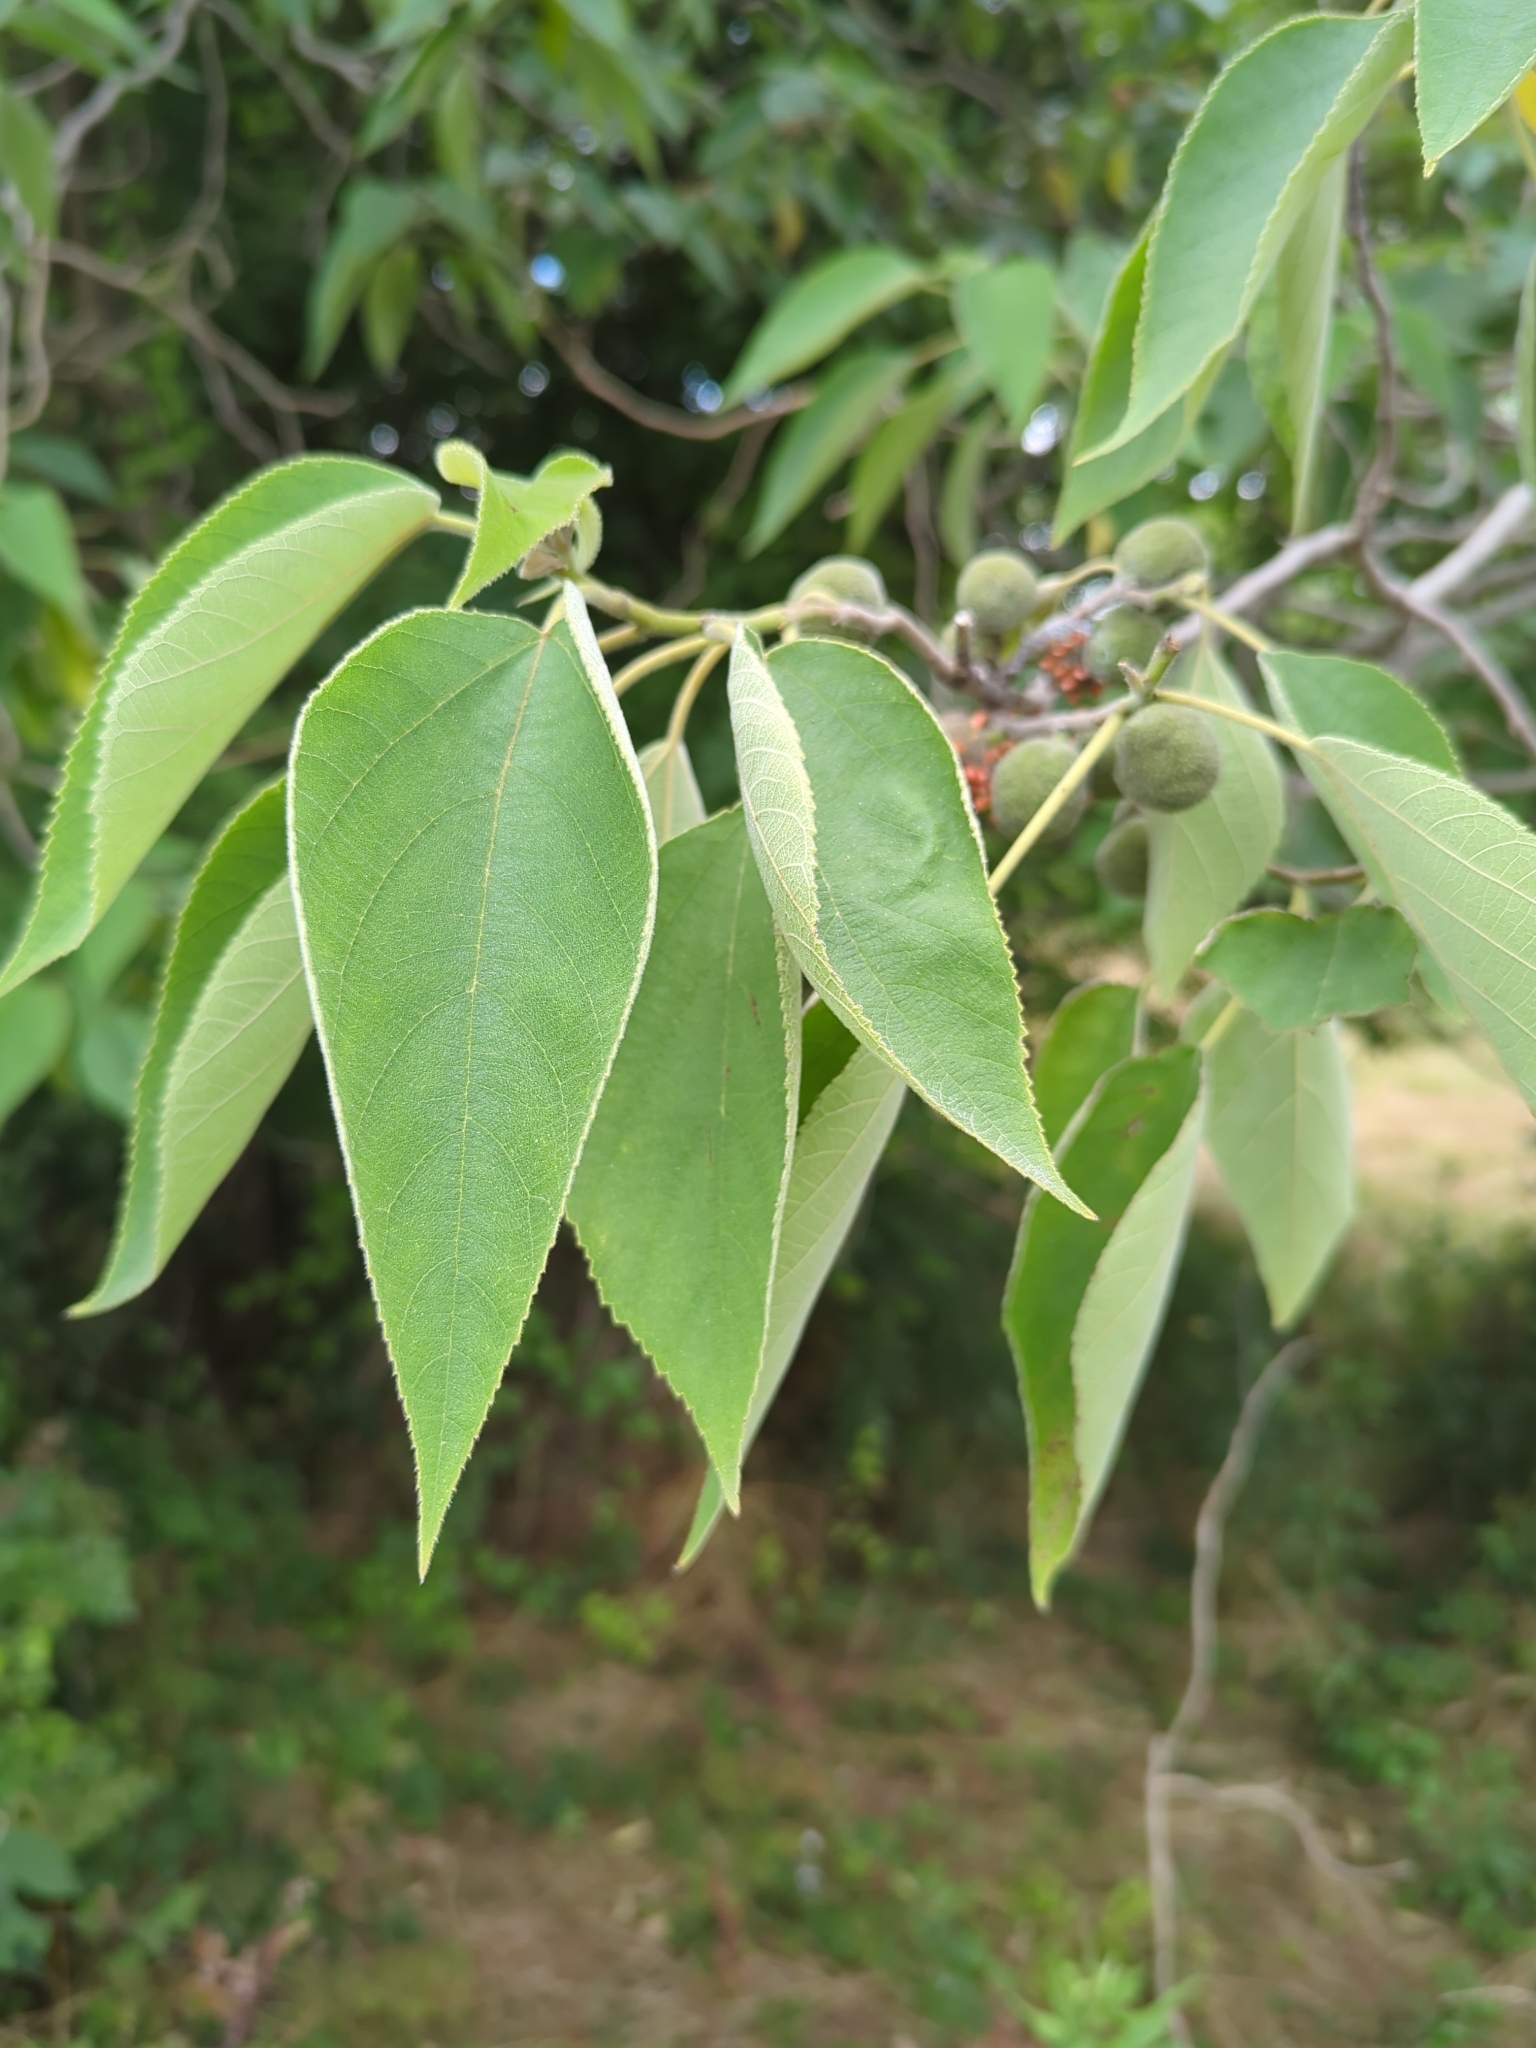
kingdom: Plantae
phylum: Tracheophyta
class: Magnoliopsida
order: Rosales
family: Moraceae
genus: Broussonetia
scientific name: Broussonetia papyrifera
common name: Paper mulberry
